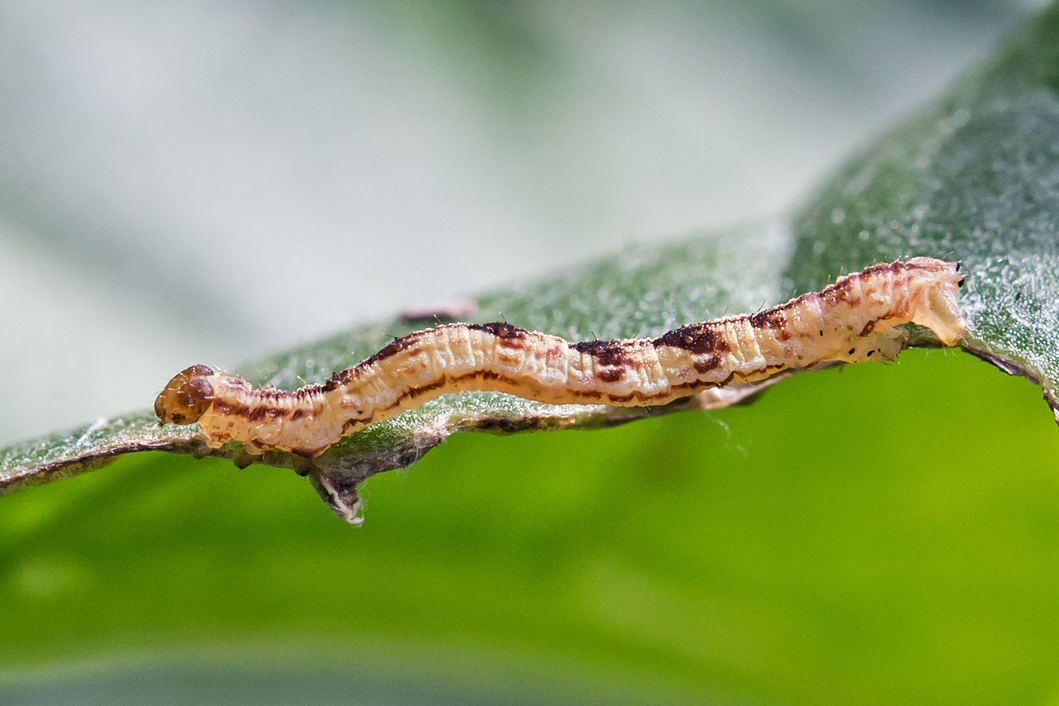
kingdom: Animalia
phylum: Arthropoda
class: Insecta
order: Lepidoptera
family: Geometridae
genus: Eupithecia
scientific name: Eupithecia miserulata
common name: Common eupithecia
